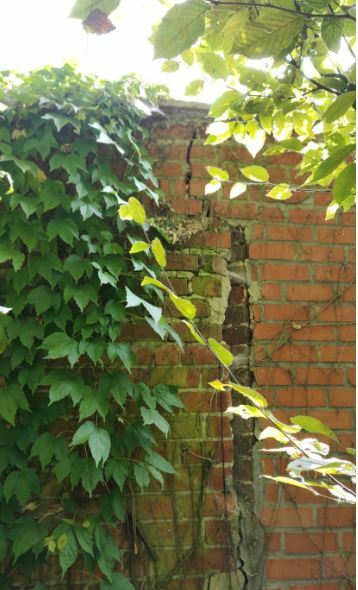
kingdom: Animalia
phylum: Arthropoda
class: Insecta
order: Hymenoptera
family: Vespidae
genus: Vespa
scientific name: Vespa crabro
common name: Hornet
